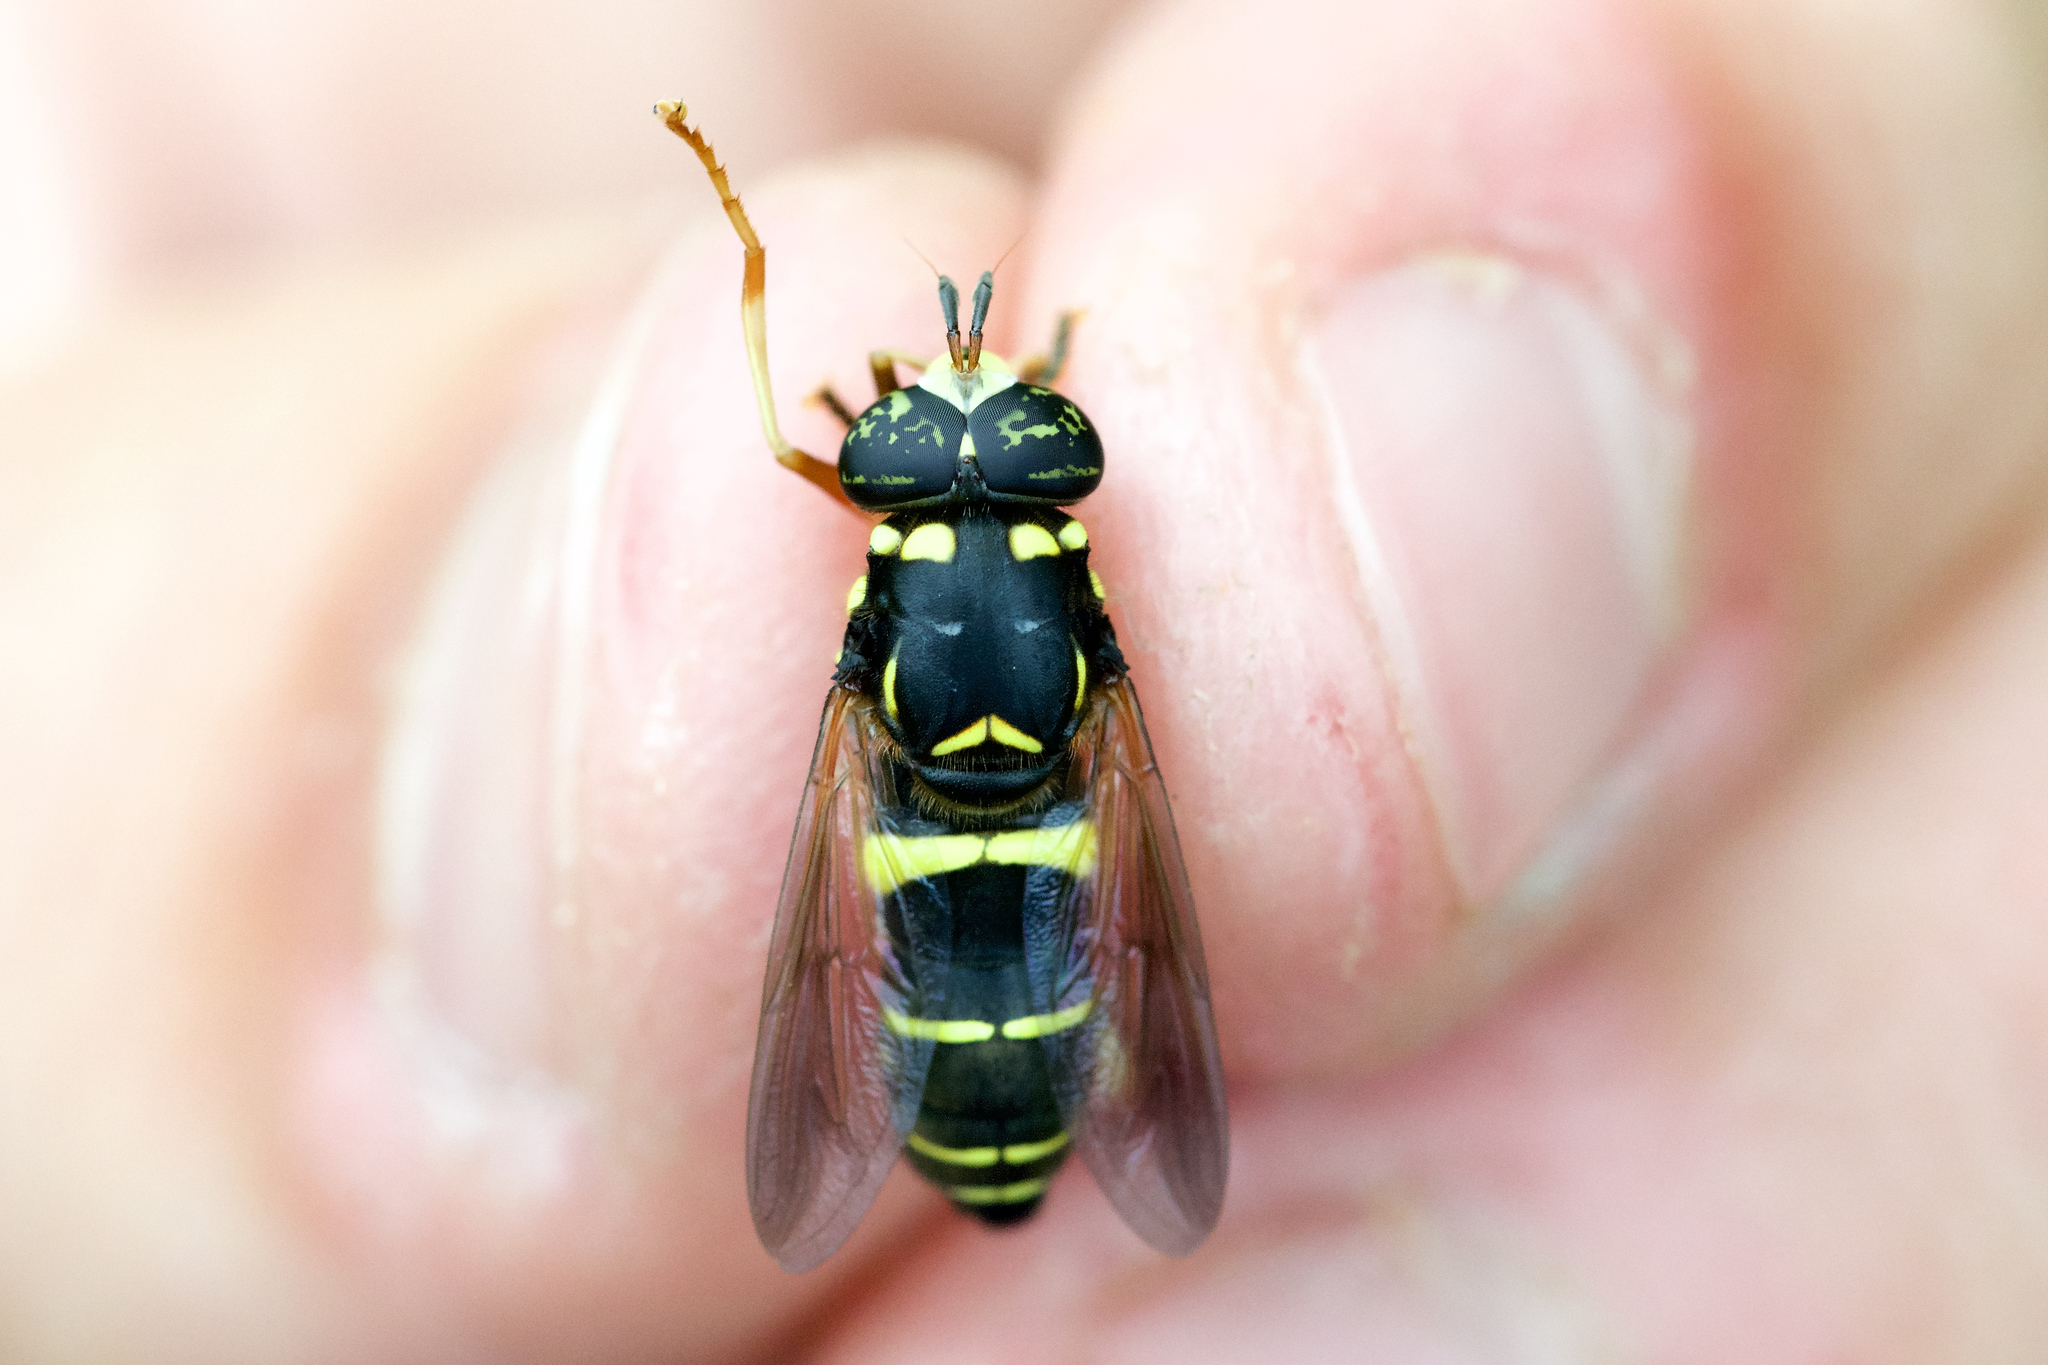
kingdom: Animalia
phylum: Arthropoda
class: Insecta
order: Diptera
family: Syrphidae
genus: Spilomyia
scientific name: Spilomyia sayi
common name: Four-lined hornet fly
